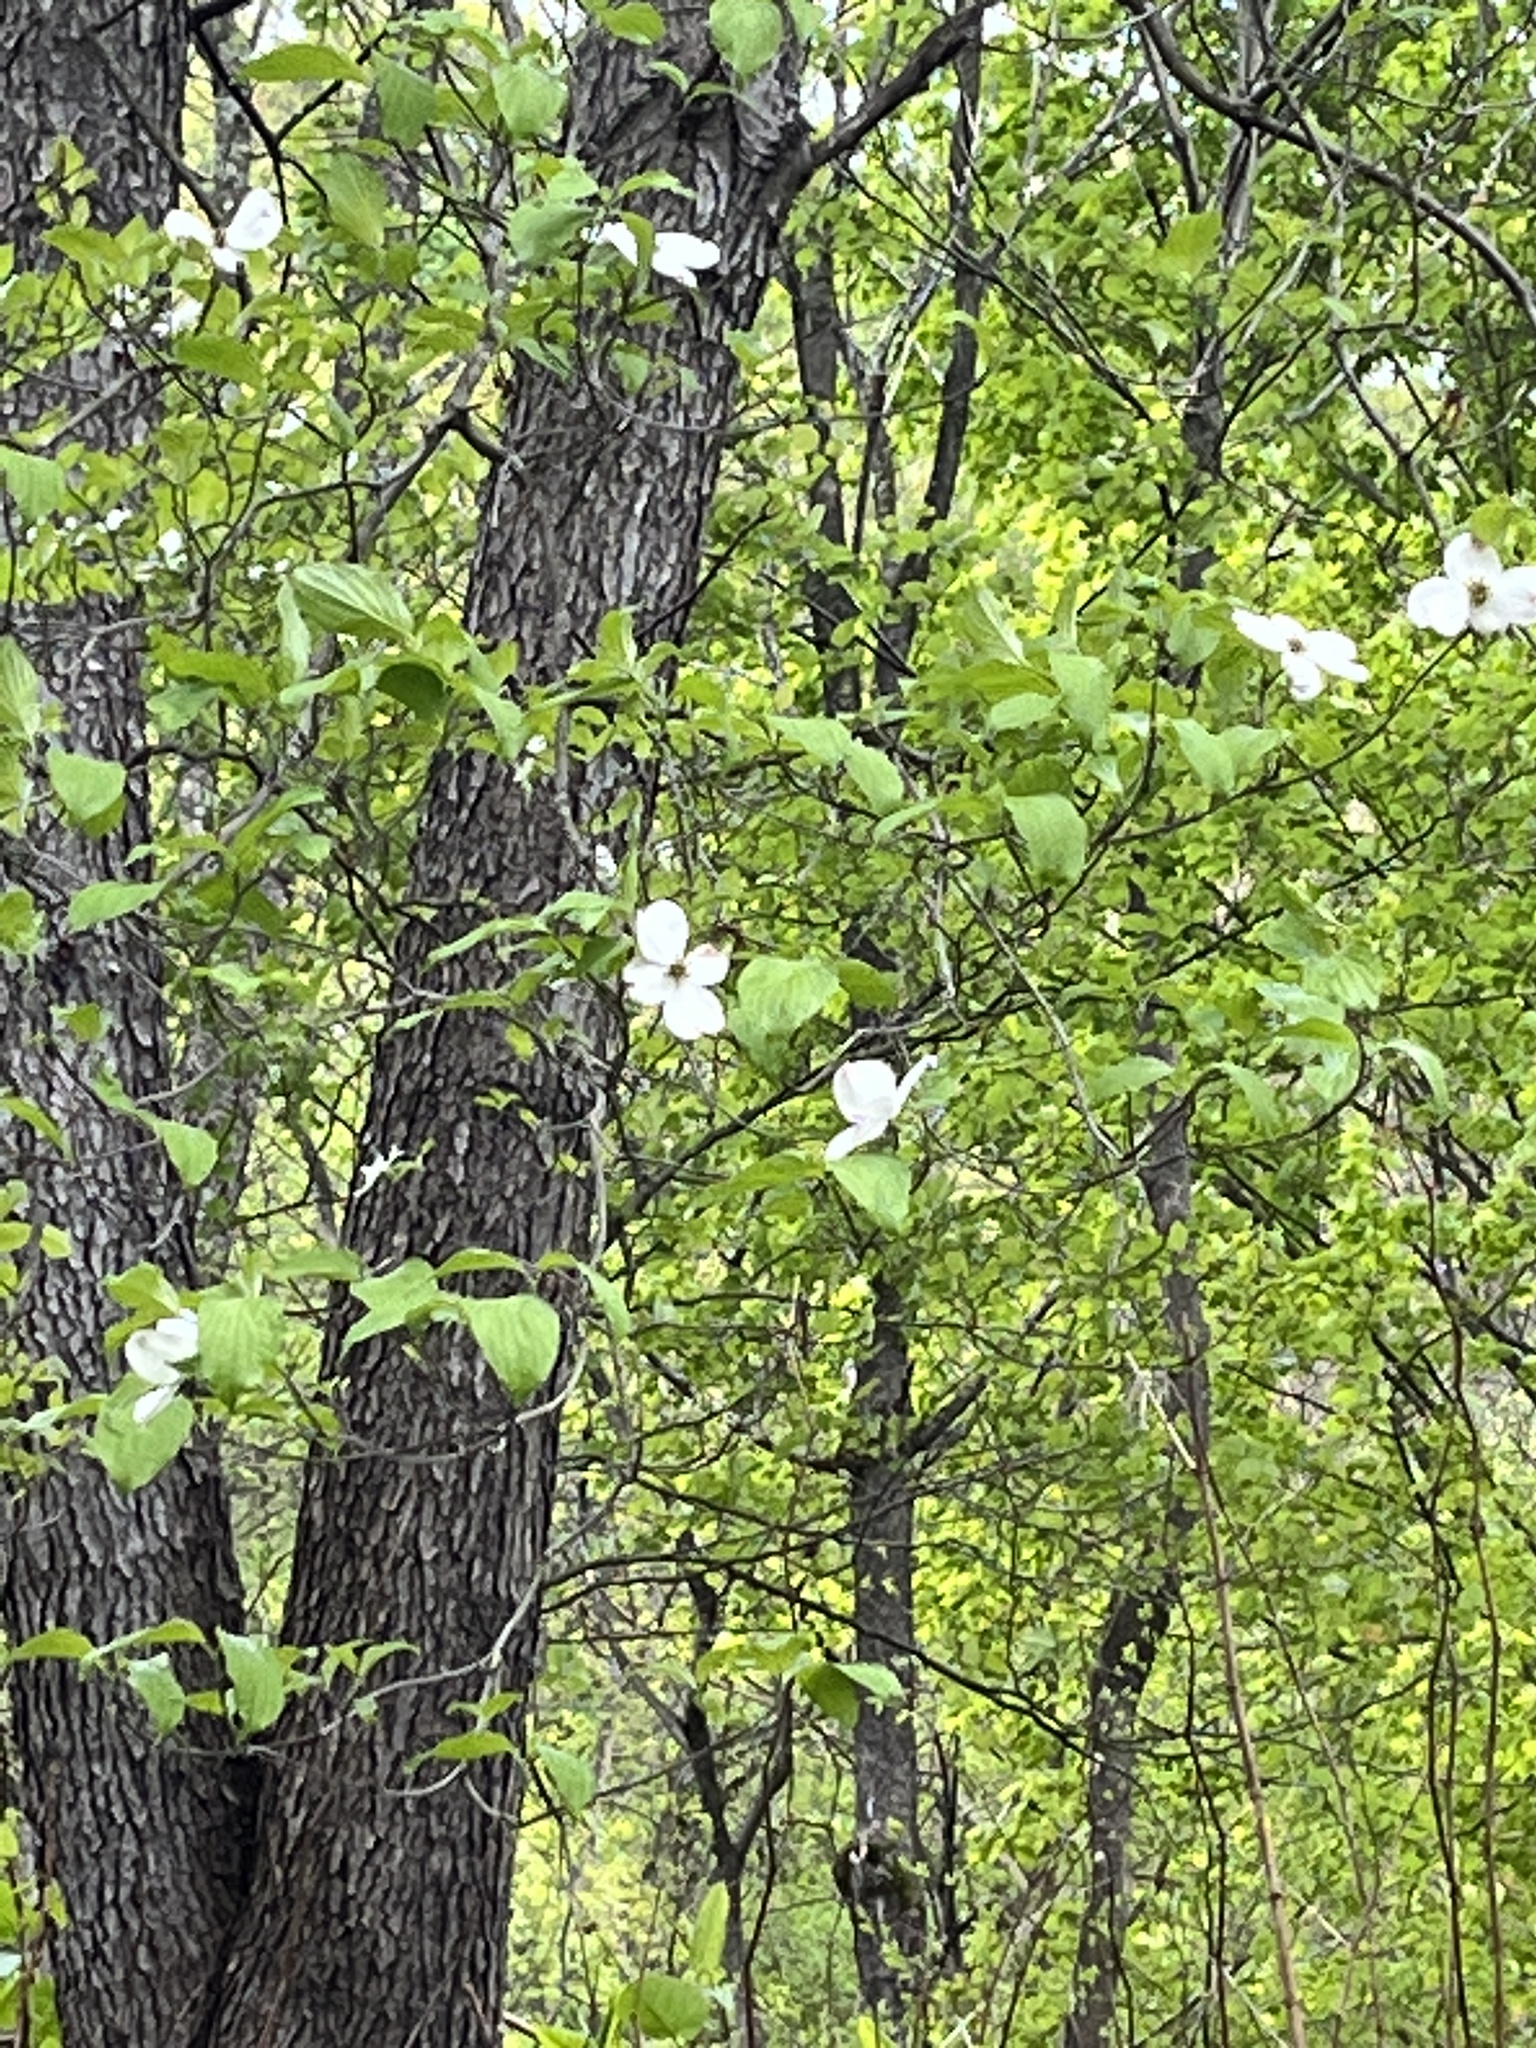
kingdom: Plantae
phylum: Tracheophyta
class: Magnoliopsida
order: Cornales
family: Cornaceae
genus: Cornus
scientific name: Cornus florida
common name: Flowering dogwood
